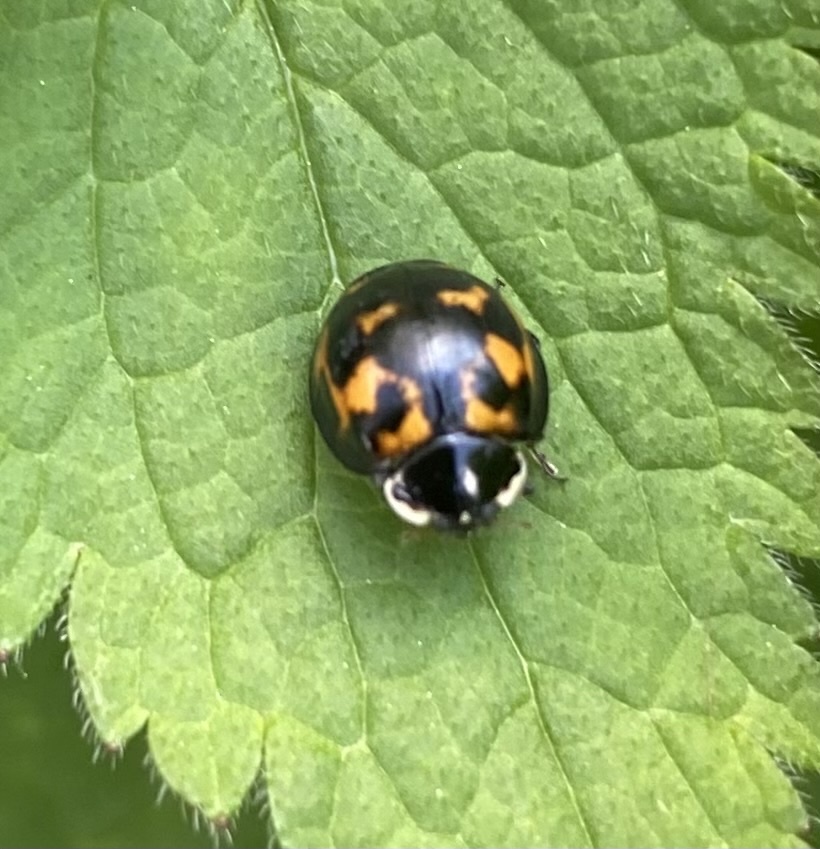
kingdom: Animalia
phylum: Arthropoda
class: Insecta
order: Coleoptera
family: Coccinellidae
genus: Harmonia
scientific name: Harmonia axyridis
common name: Harlequin ladybird
